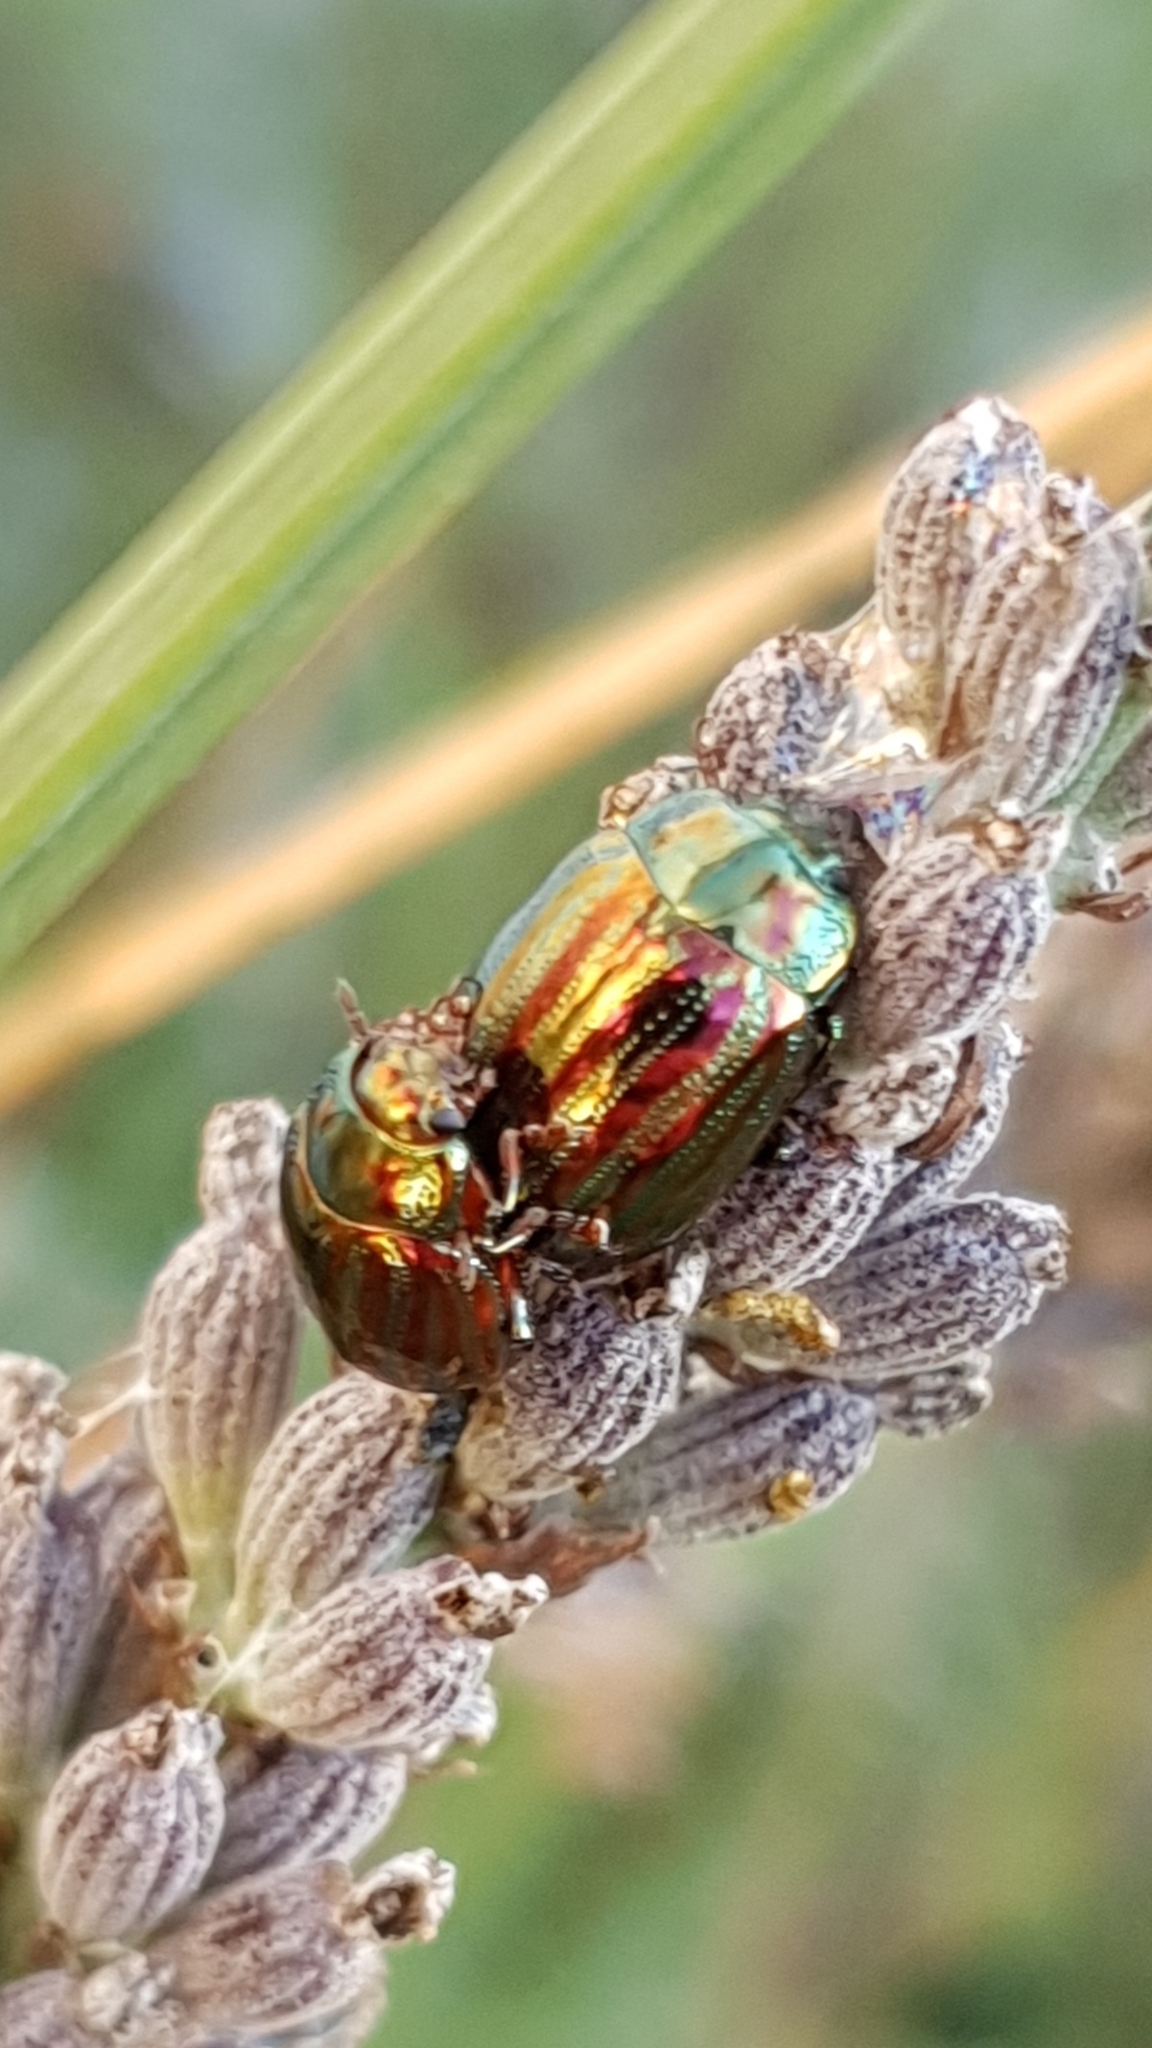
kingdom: Animalia
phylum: Arthropoda
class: Insecta
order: Coleoptera
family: Chrysomelidae
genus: Chrysolina
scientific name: Chrysolina americana
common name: Rosemary beetle
